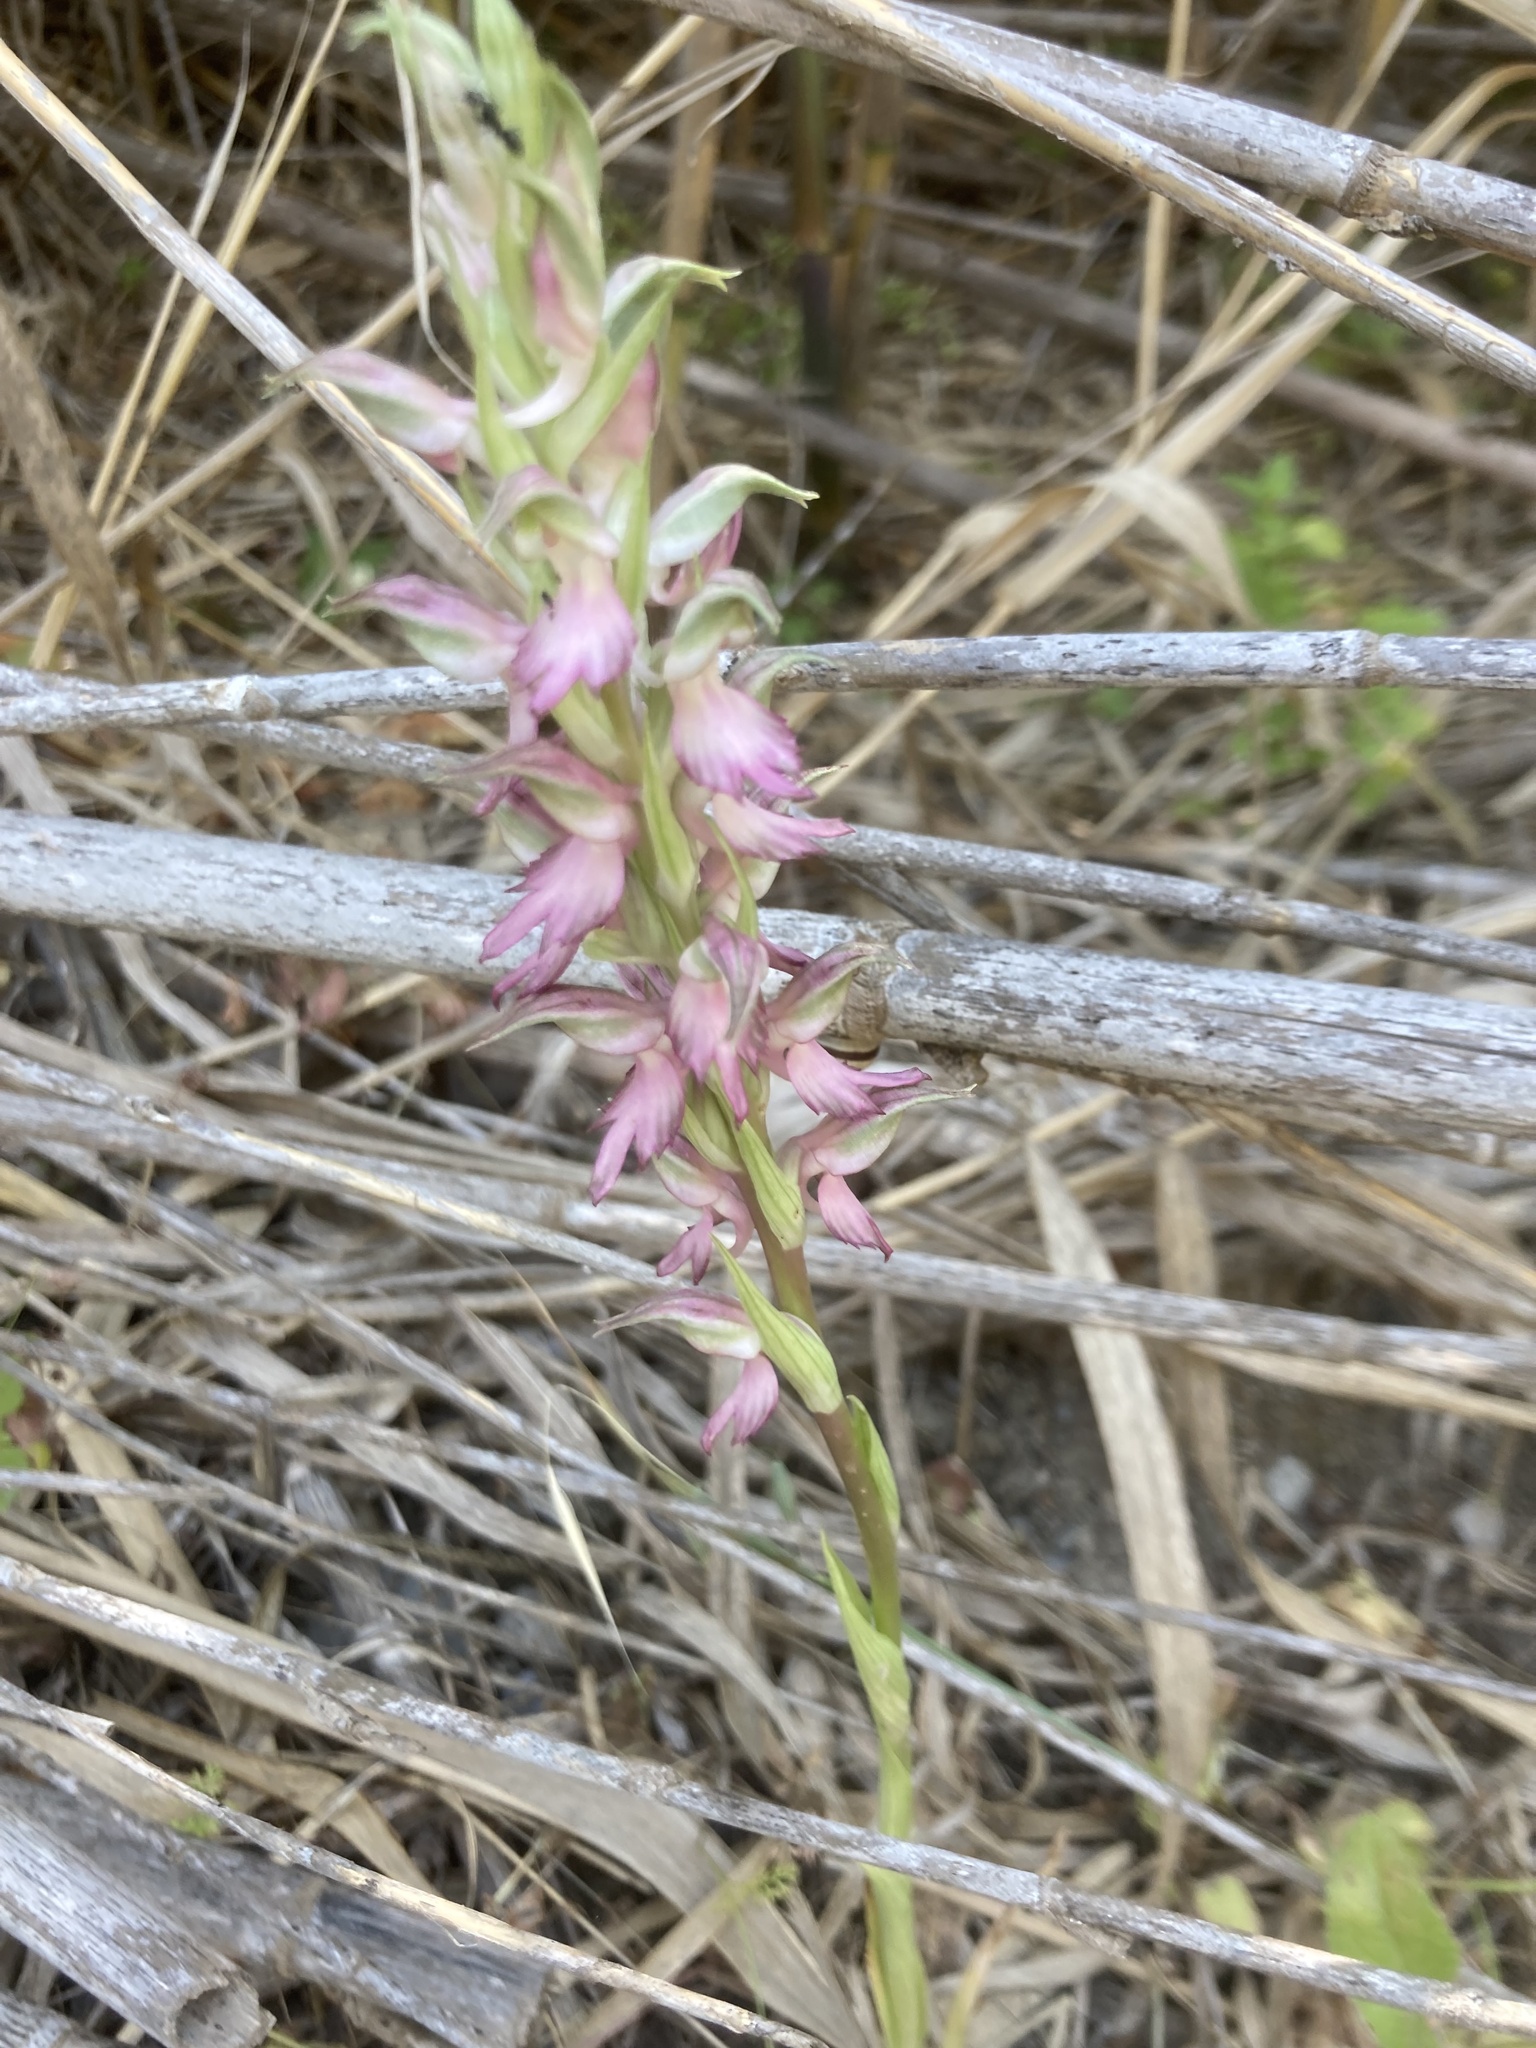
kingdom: Plantae
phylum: Tracheophyta
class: Liliopsida
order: Asparagales
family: Orchidaceae
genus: Anacamptis
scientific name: Anacamptis sancta
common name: Holy orchid
